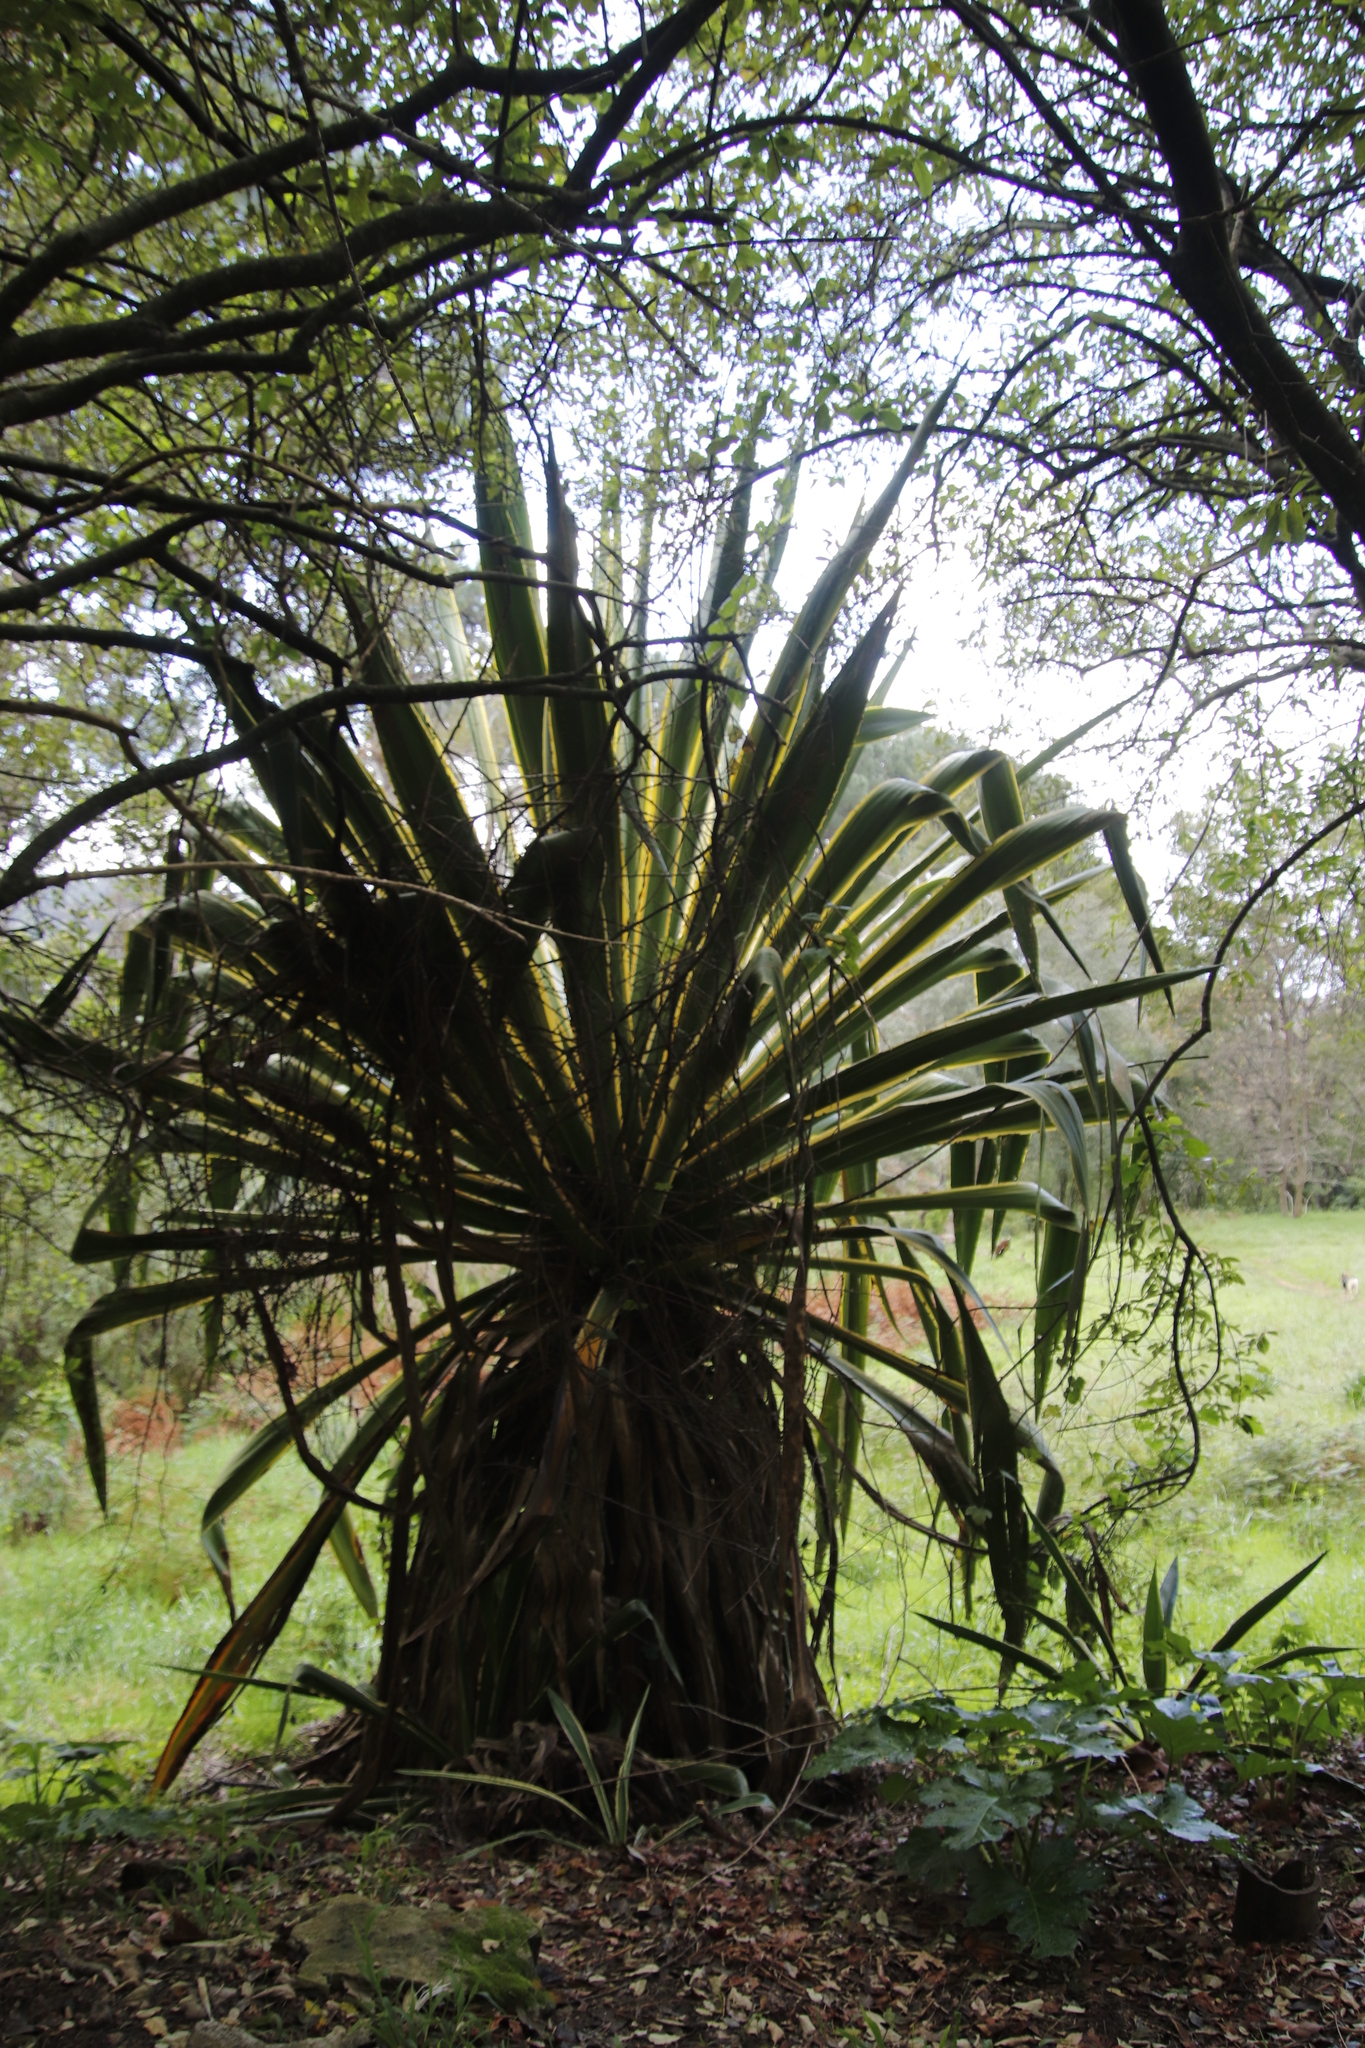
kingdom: Plantae
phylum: Tracheophyta
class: Liliopsida
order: Asparagales
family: Asparagaceae
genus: Furcraea
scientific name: Furcraea selloana
